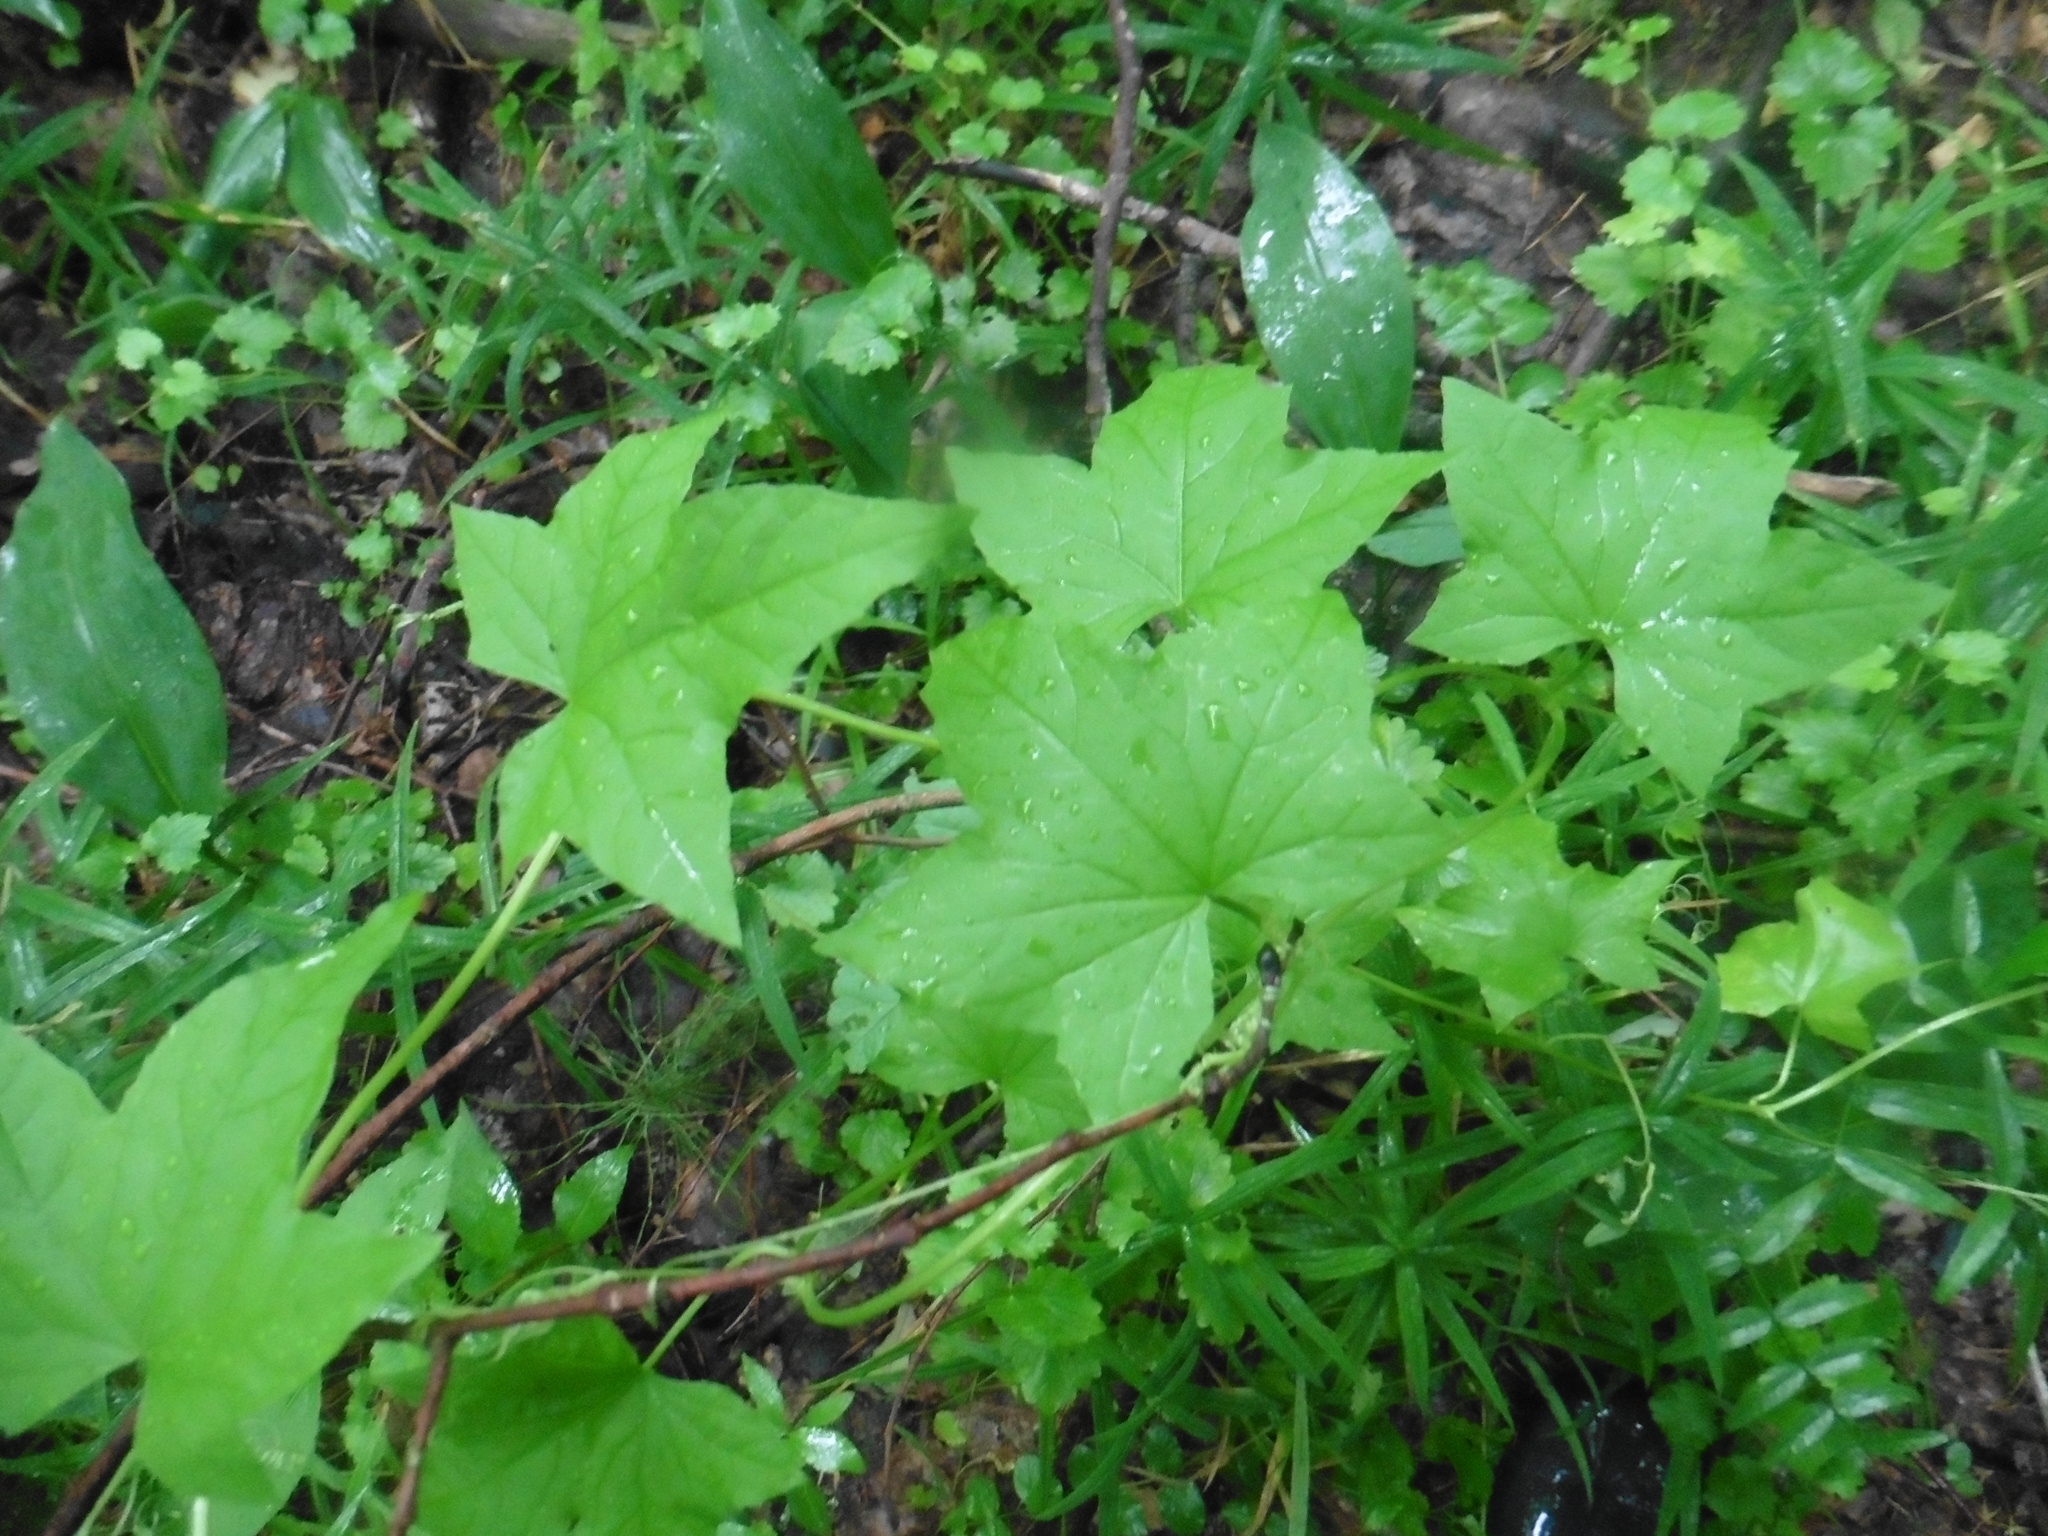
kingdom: Plantae
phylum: Tracheophyta
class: Magnoliopsida
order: Cucurbitales
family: Cucurbitaceae
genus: Echinocystis
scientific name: Echinocystis lobata
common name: Wild cucumber
